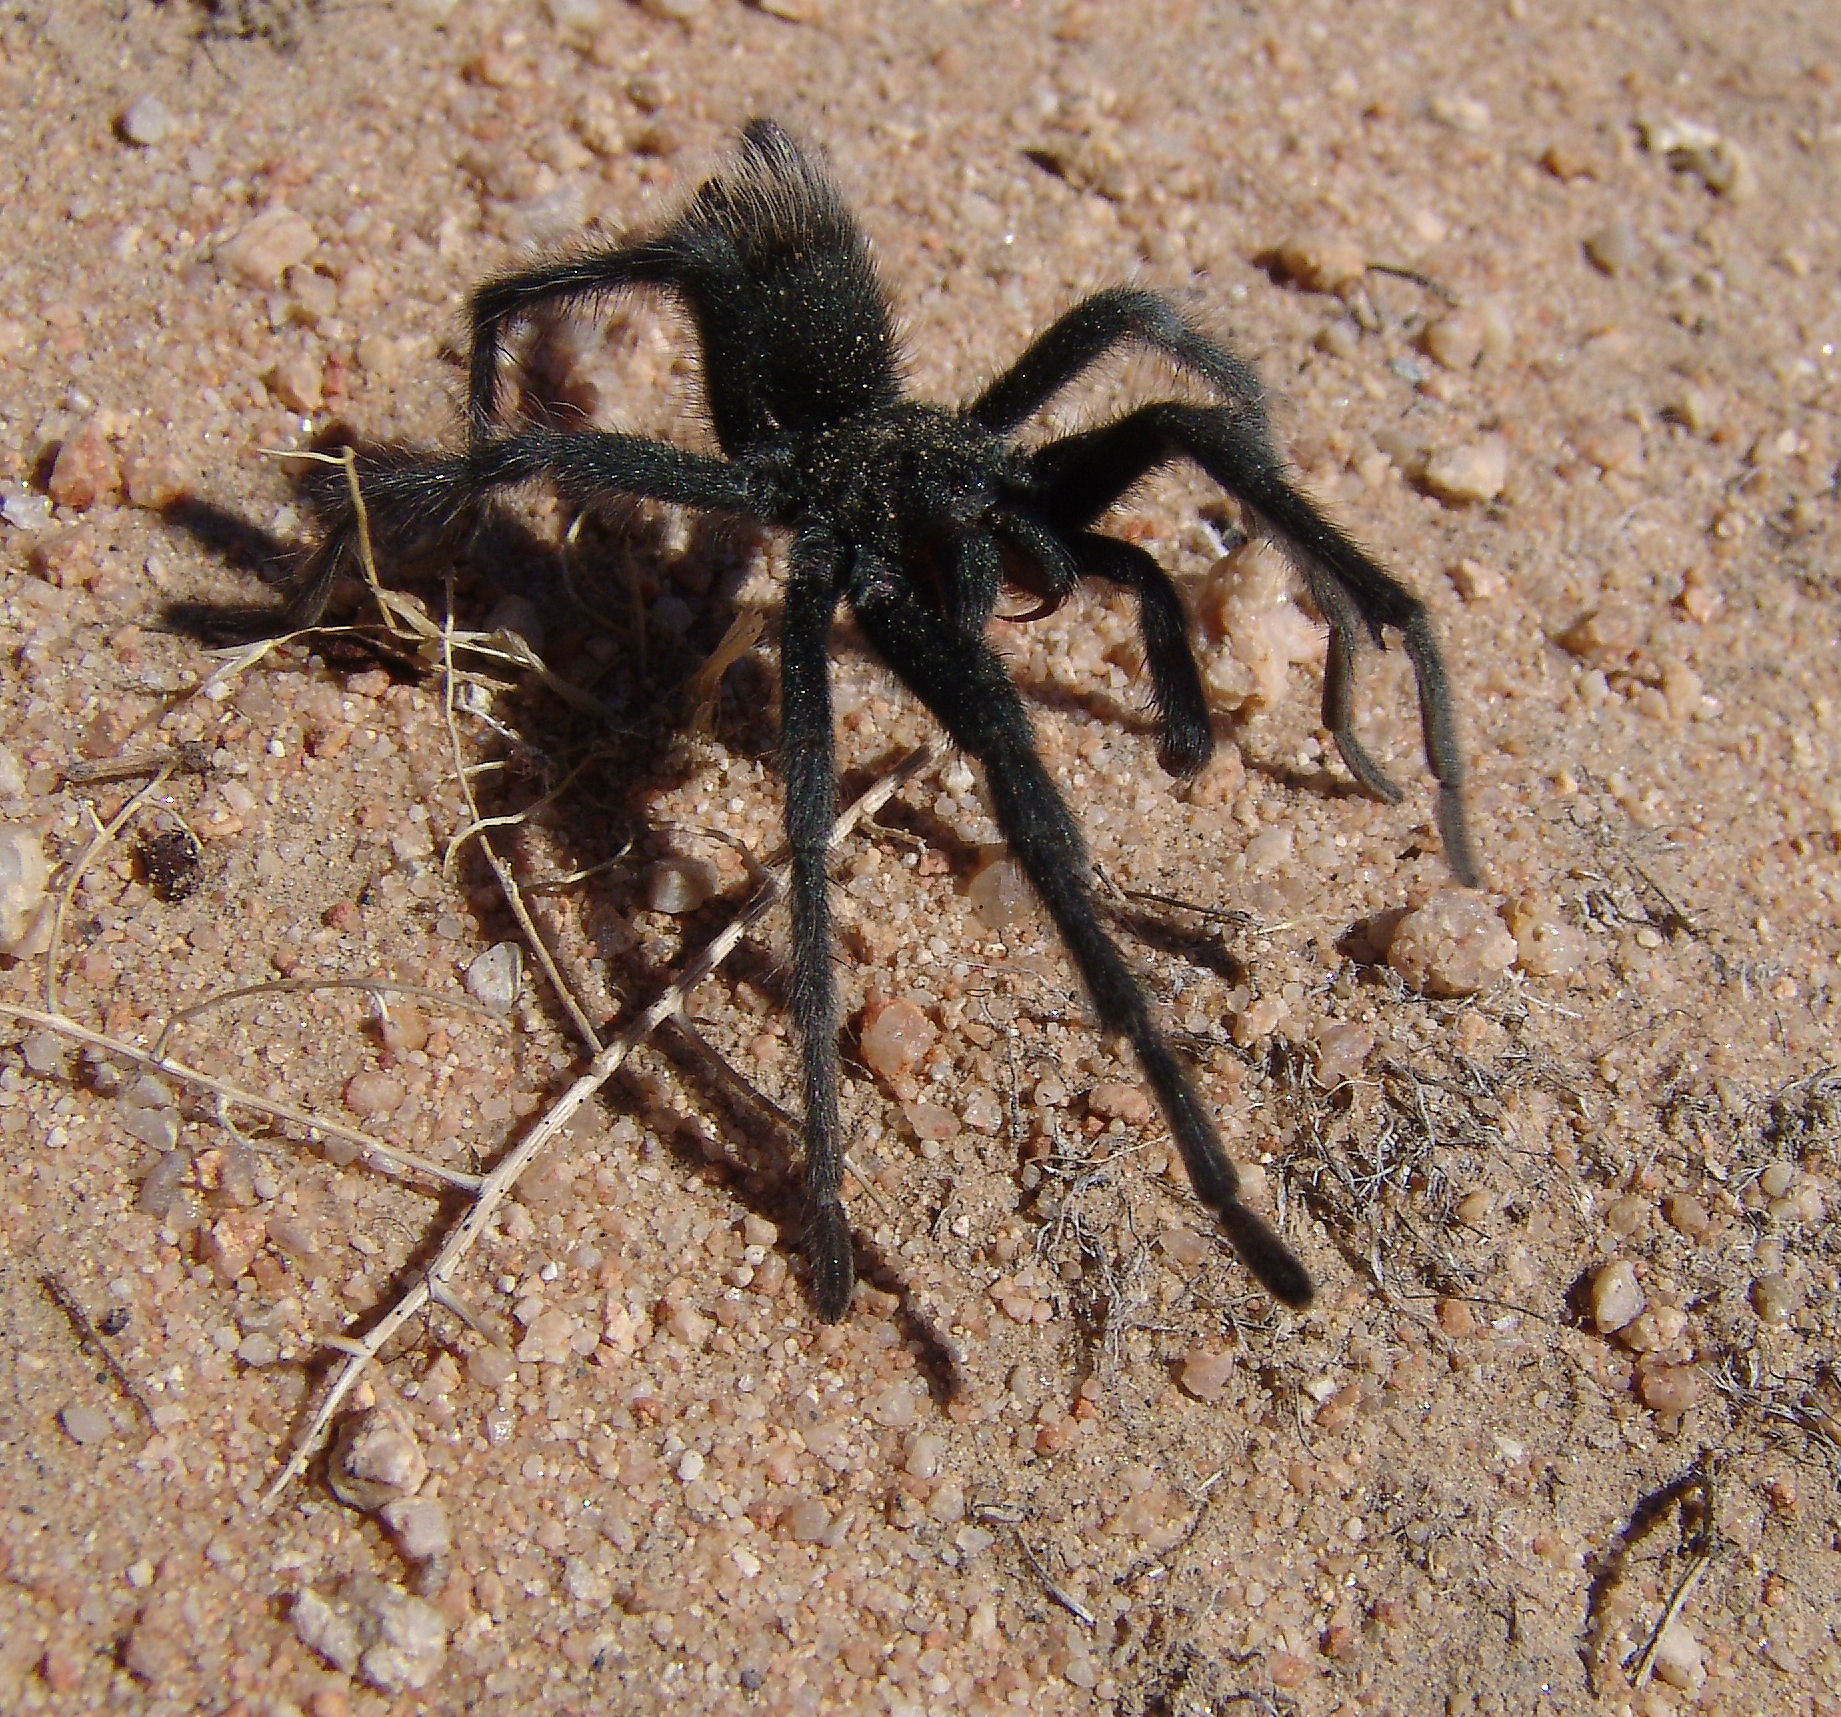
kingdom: Animalia
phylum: Arthropoda
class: Arachnida
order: Araneae
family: Theraphosidae
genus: Aphonopelma
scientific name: Aphonopelma icenoglei
